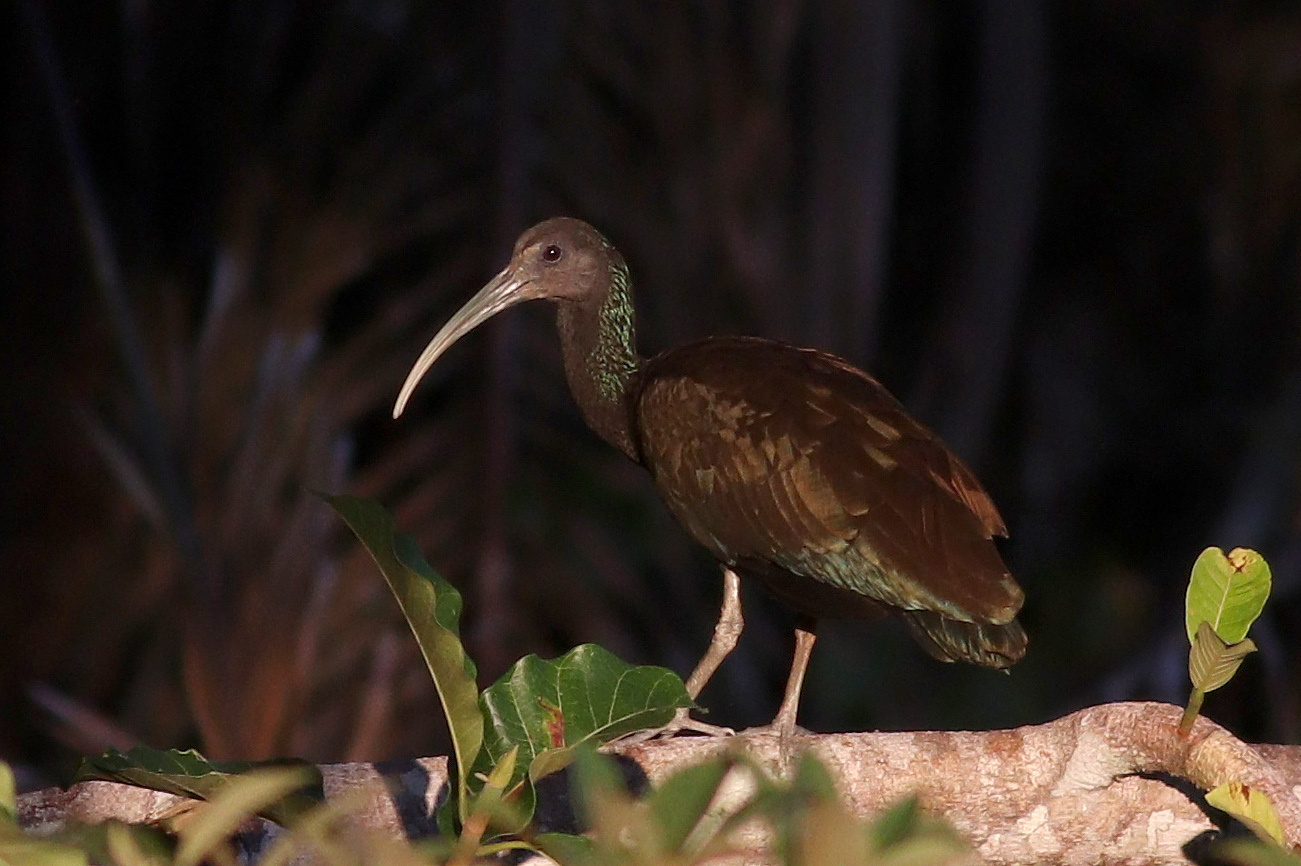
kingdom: Animalia
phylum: Chordata
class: Aves
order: Pelecaniformes
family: Threskiornithidae
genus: Mesembrinibis
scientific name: Mesembrinibis cayennensis
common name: Green ibis
